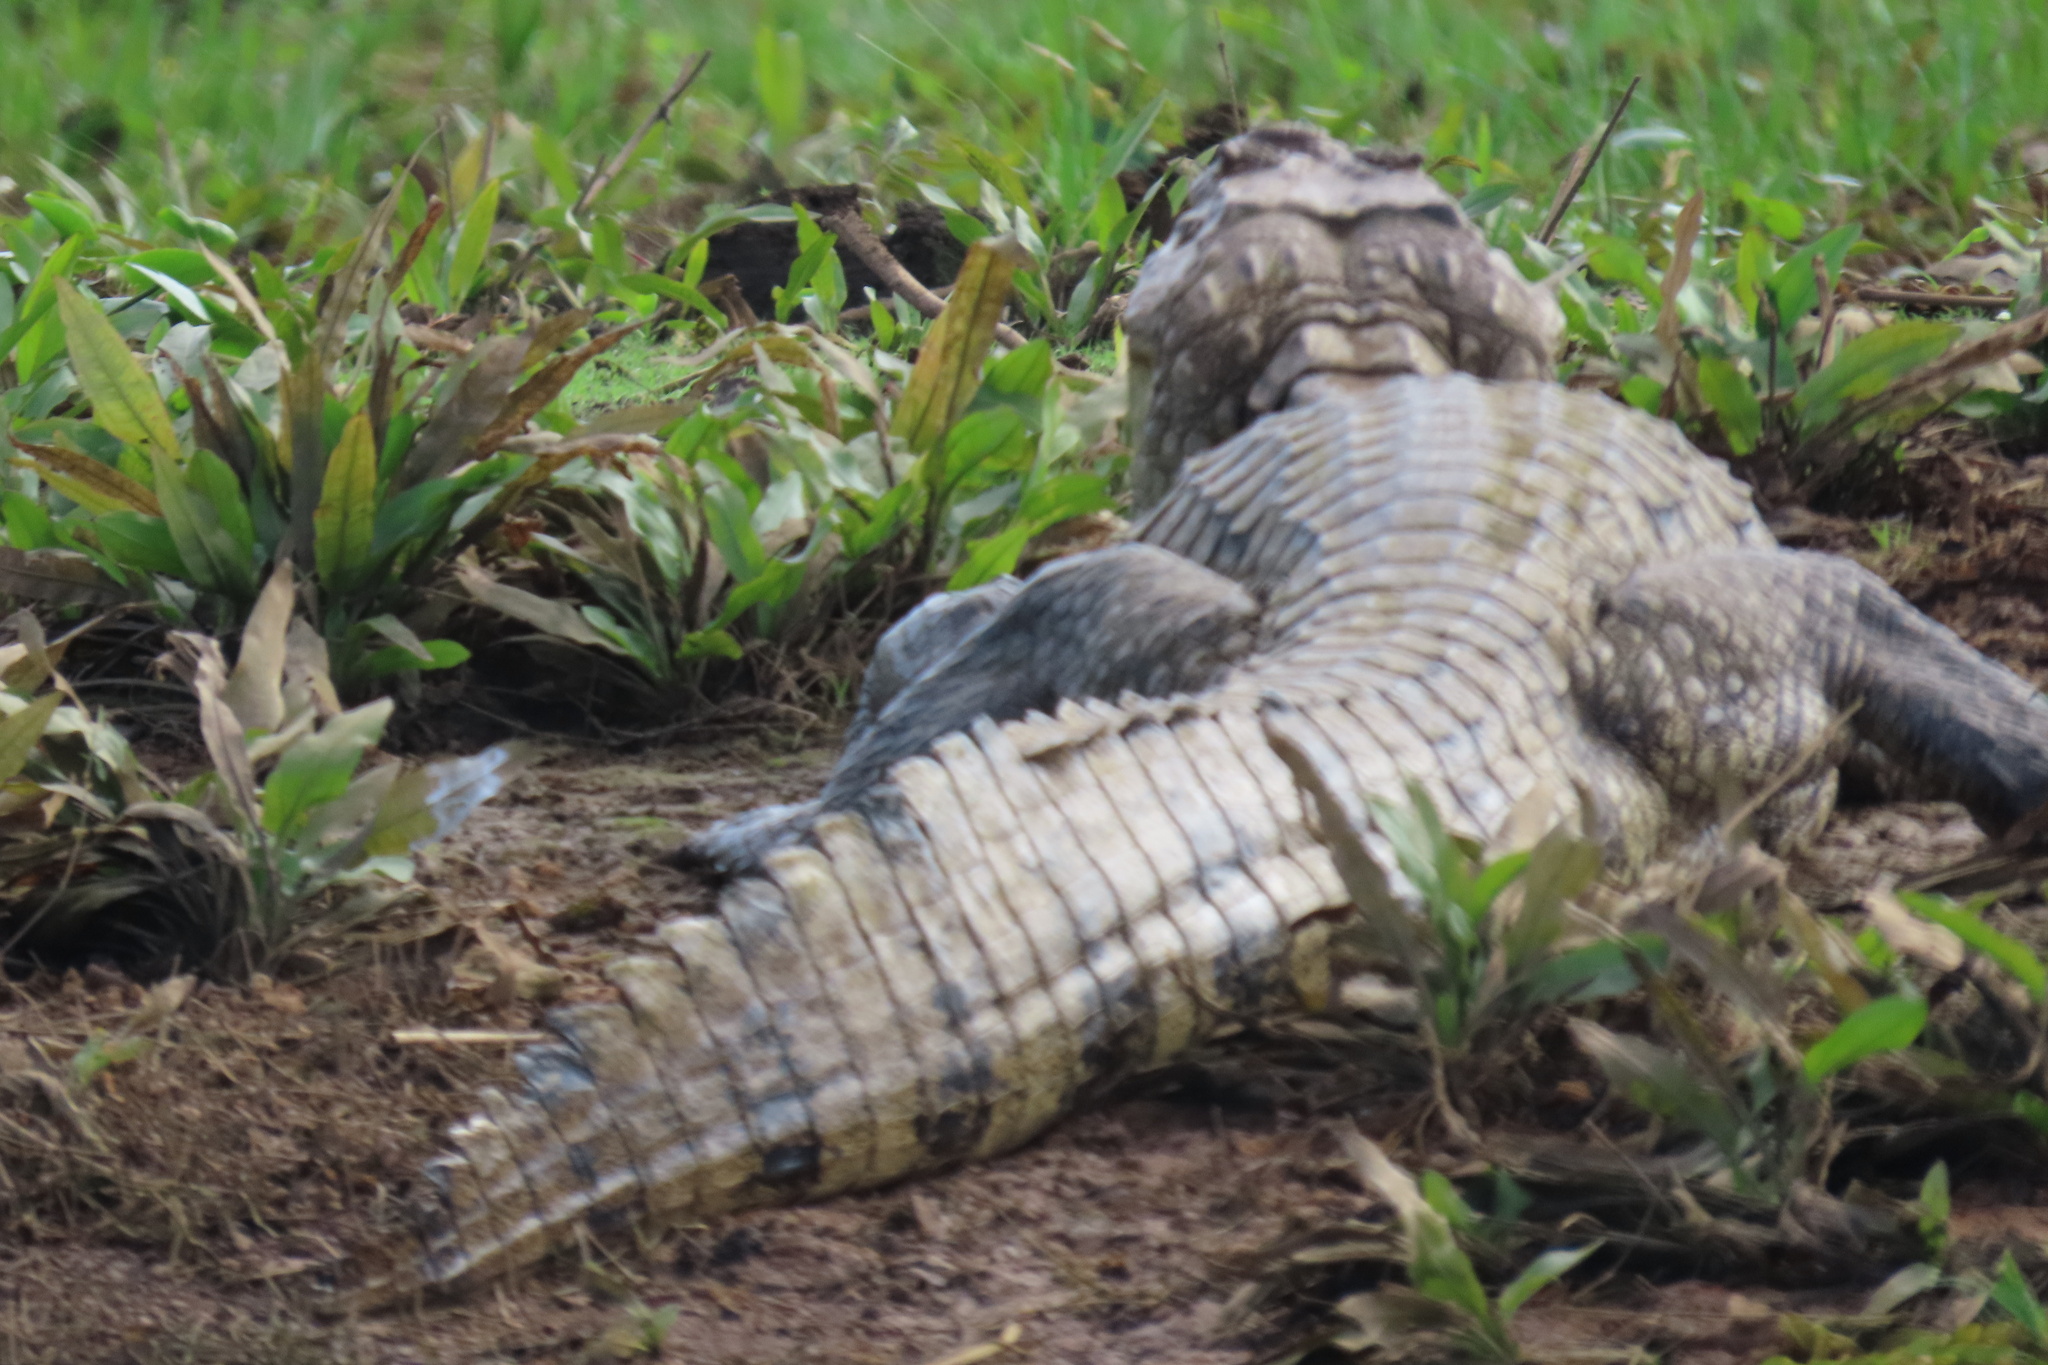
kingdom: Animalia
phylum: Chordata
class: Crocodylia
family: Alligatoridae
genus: Caiman
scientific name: Caiman crocodilus
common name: Common caiman
